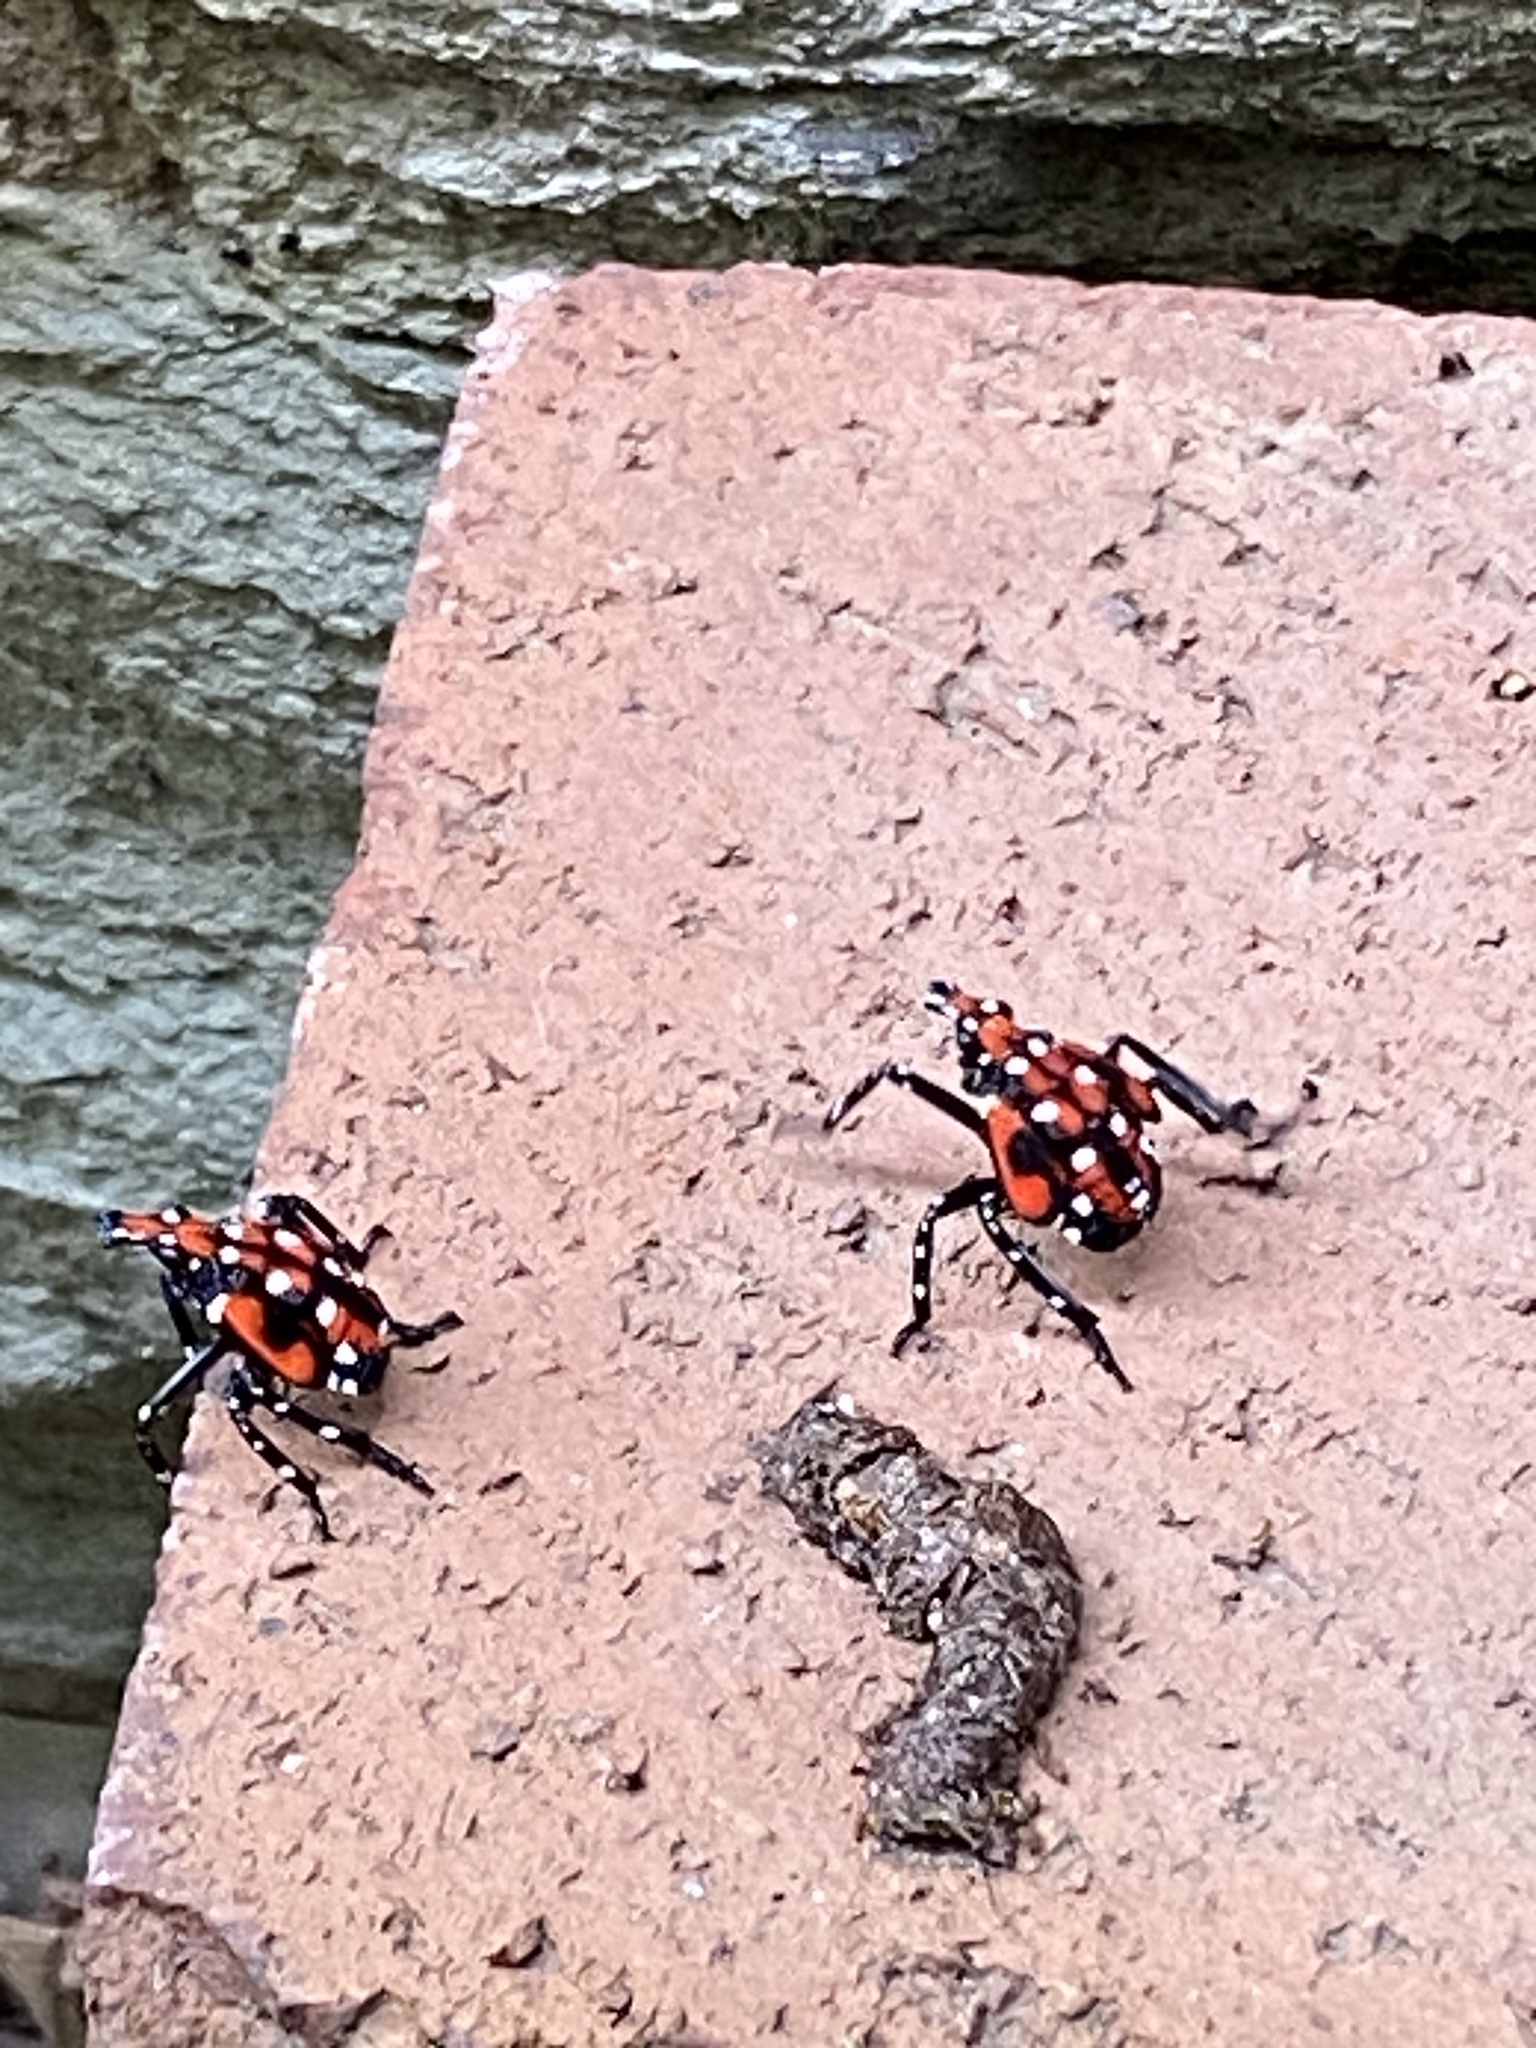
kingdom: Animalia
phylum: Arthropoda
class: Insecta
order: Hemiptera
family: Fulgoridae
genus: Lycorma
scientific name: Lycorma delicatula
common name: Spotted lanternfly
